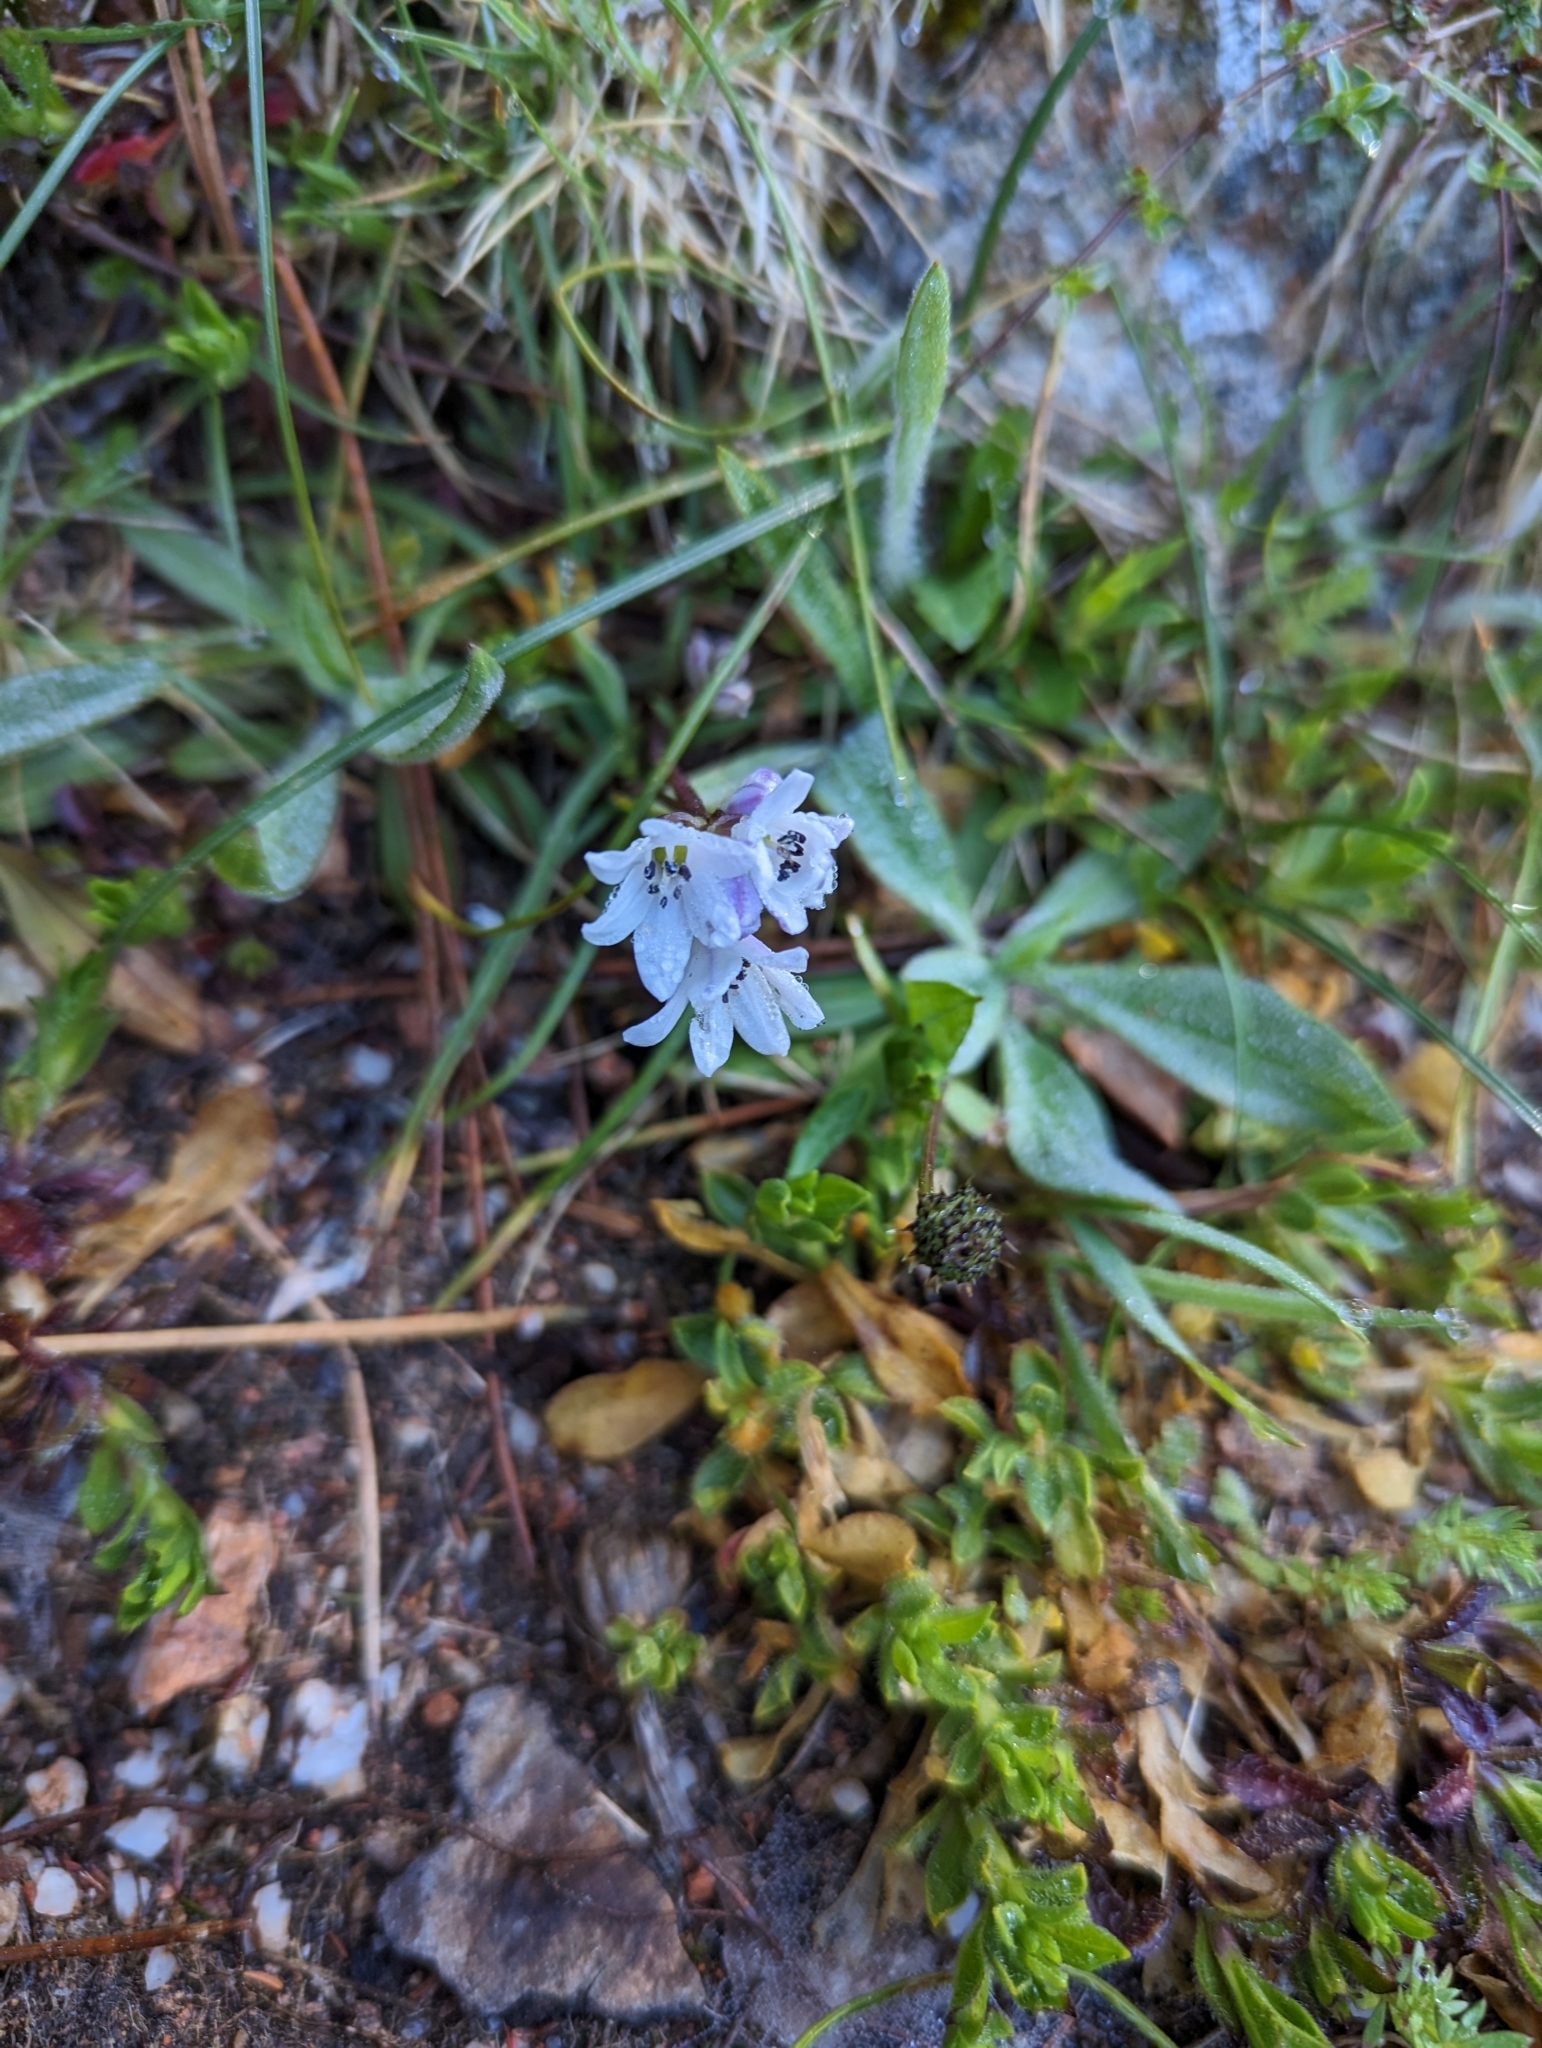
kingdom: Plantae
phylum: Tracheophyta
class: Liliopsida
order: Asparagales
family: Asparagaceae
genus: Brimeura
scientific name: Brimeura fastigiata
